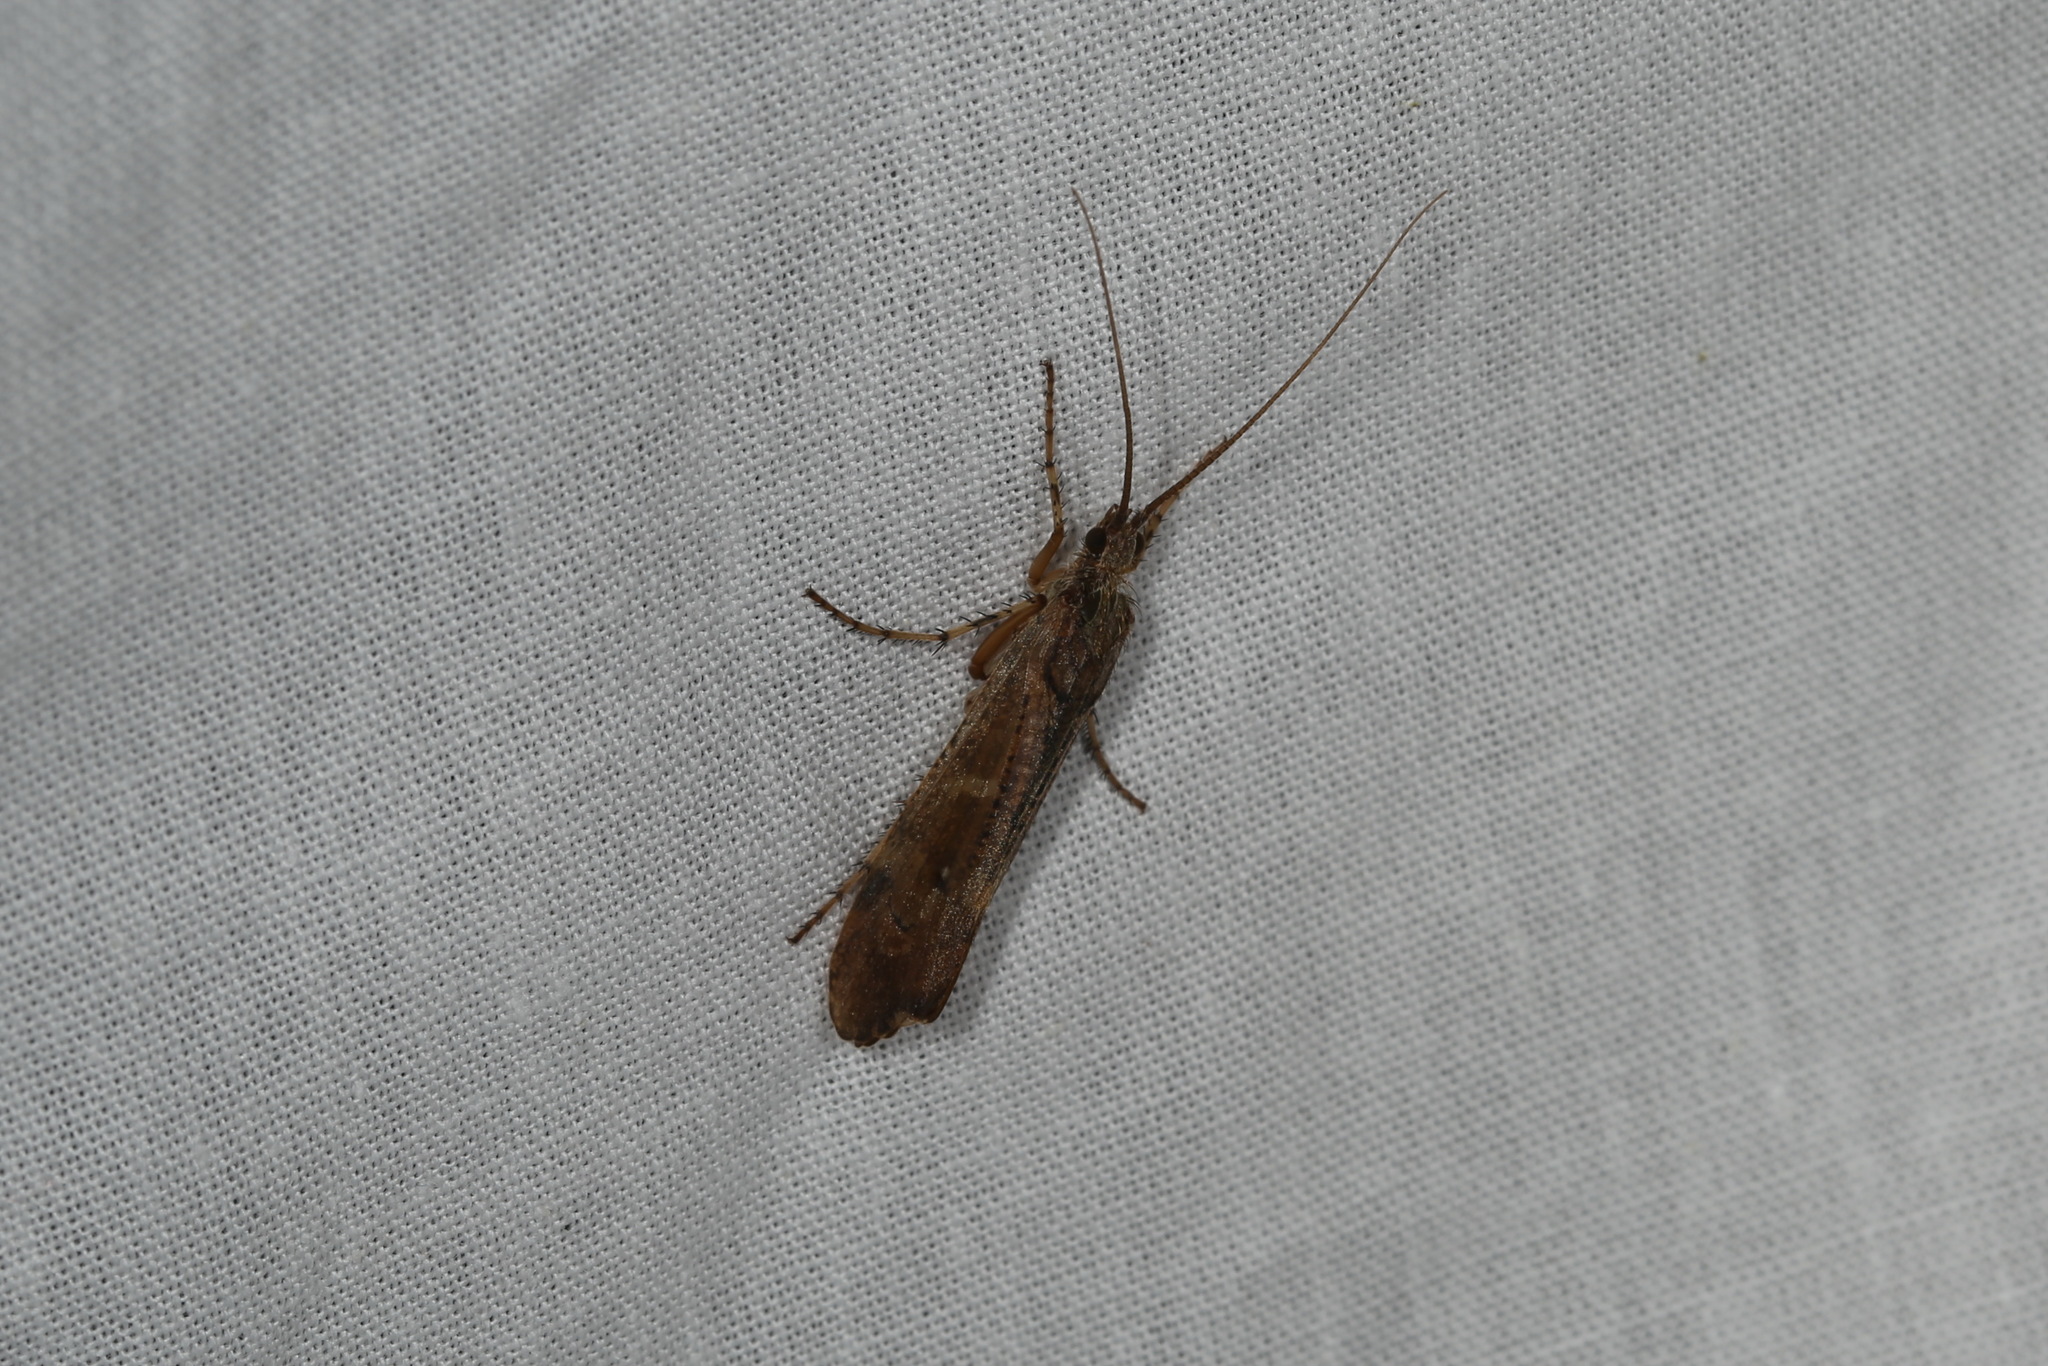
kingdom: Animalia
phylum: Arthropoda
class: Insecta
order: Trichoptera
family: Limnephilidae
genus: Glyphotaelius
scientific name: Glyphotaelius pellucidus
